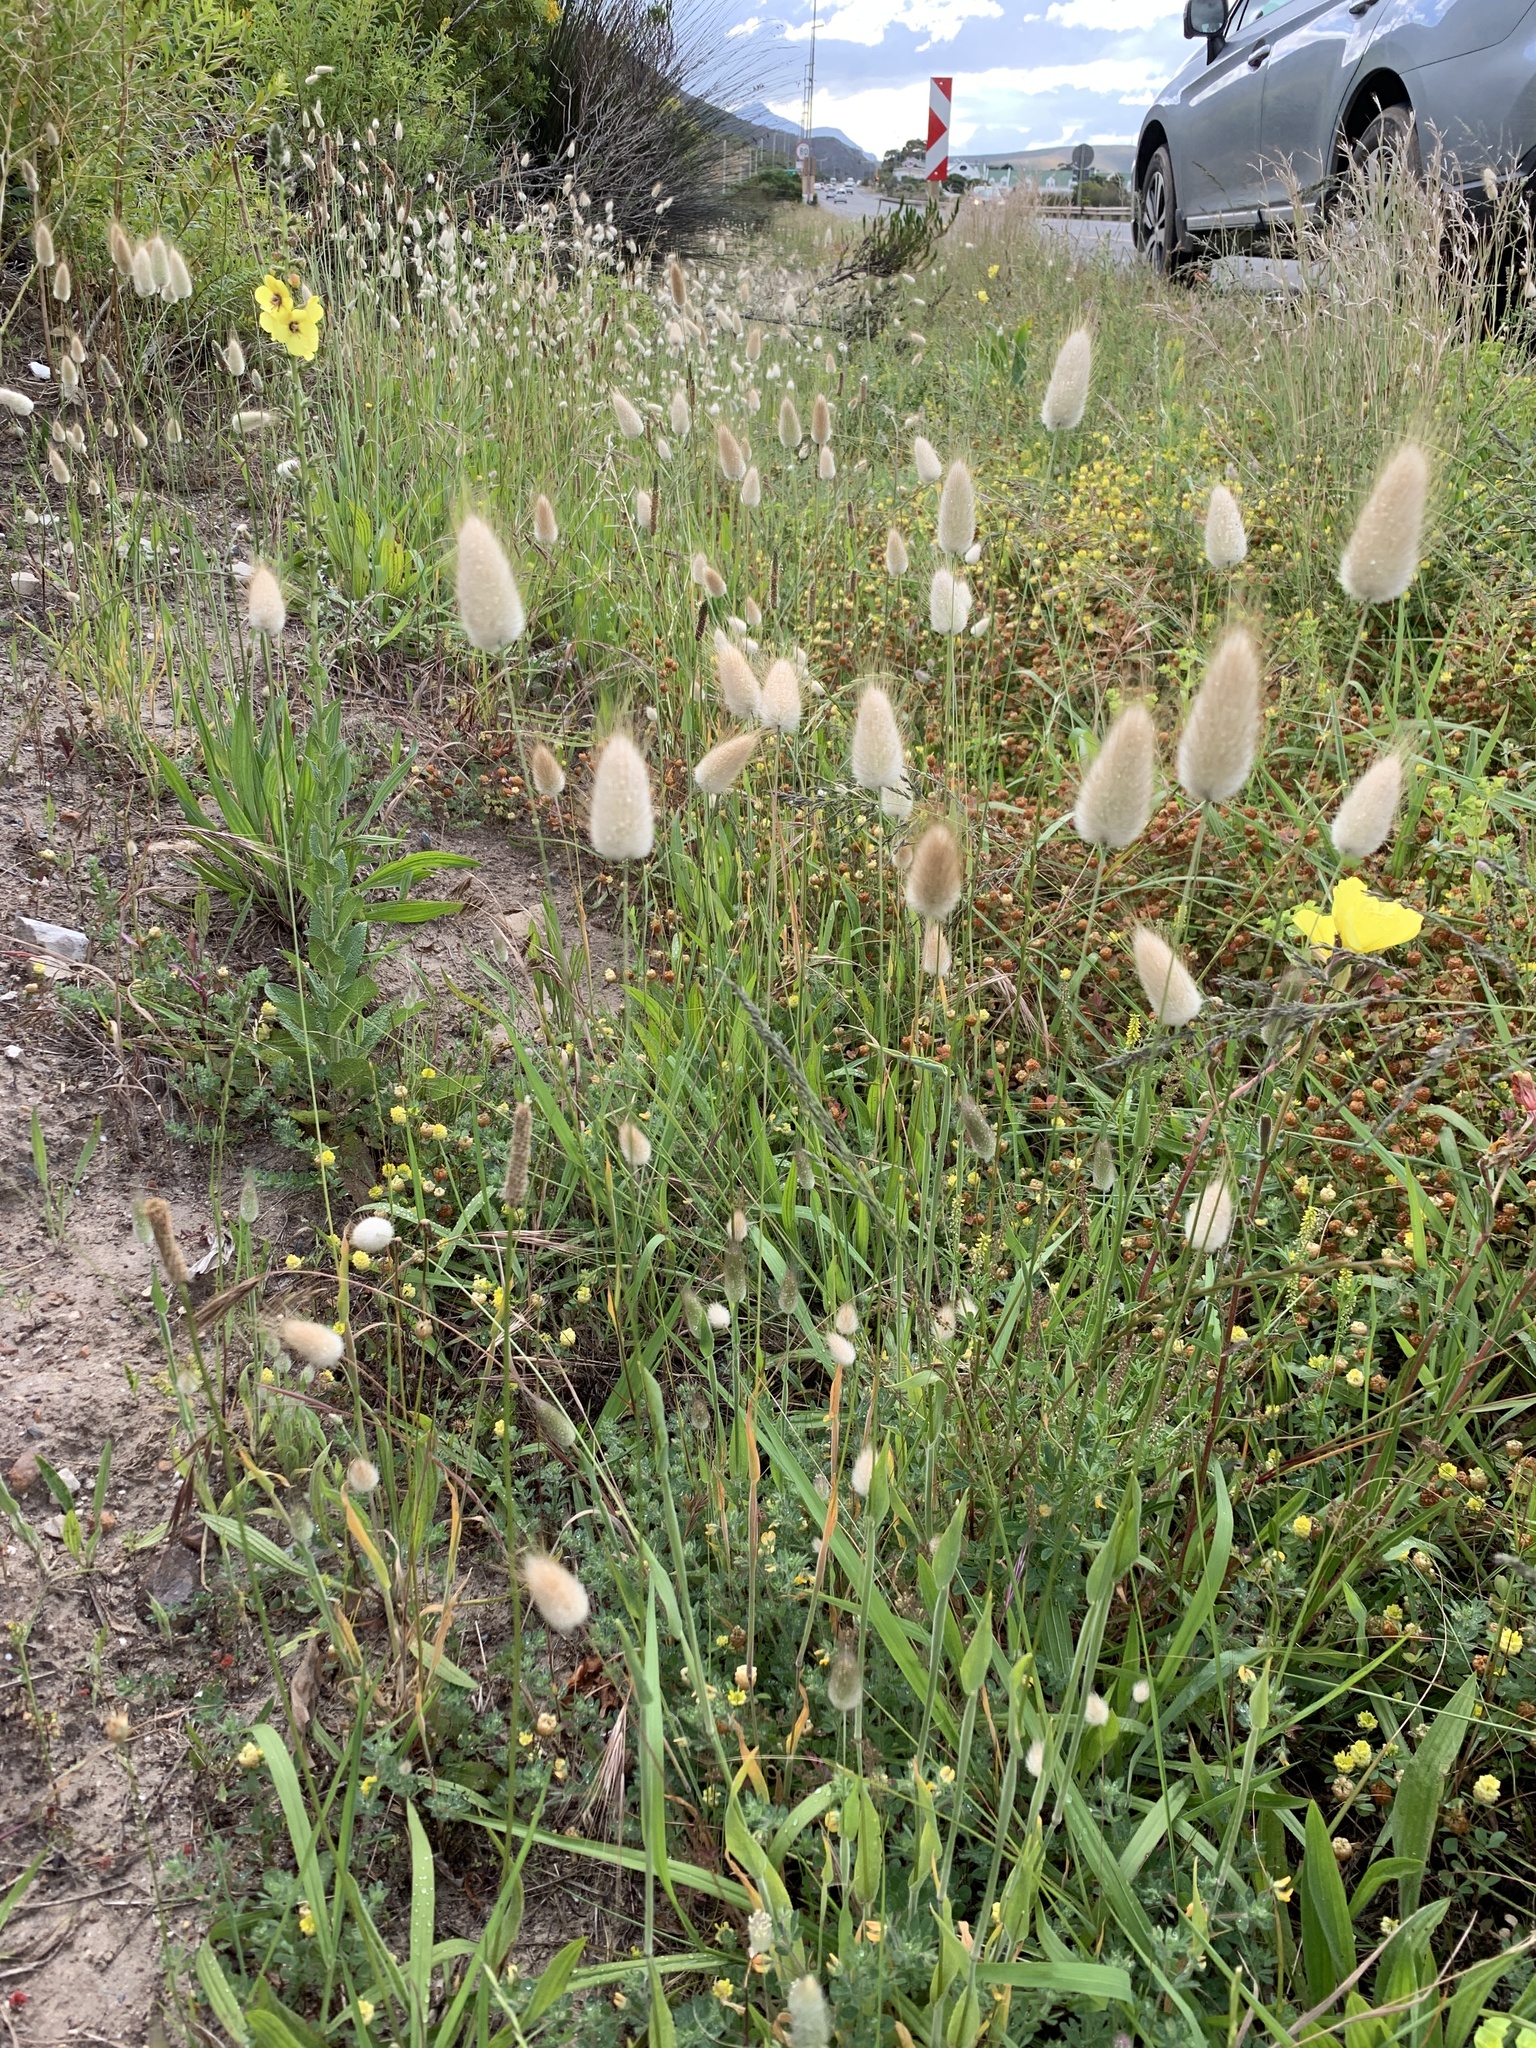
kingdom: Plantae
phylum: Tracheophyta
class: Liliopsida
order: Poales
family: Poaceae
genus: Lagurus
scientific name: Lagurus ovatus
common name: Hare's-tail
